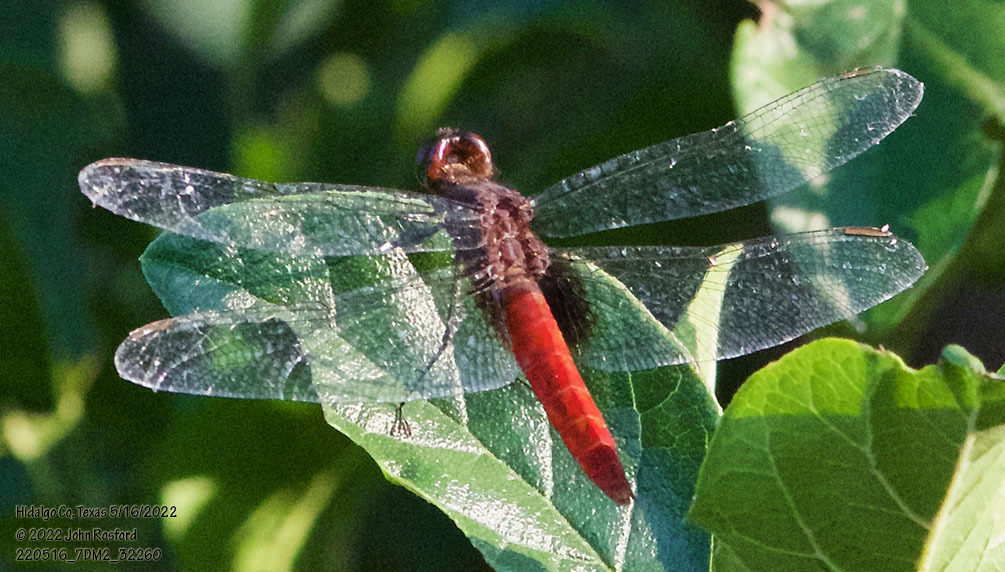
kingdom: Animalia
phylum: Arthropoda
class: Insecta
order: Odonata
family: Libellulidae
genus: Planiplax
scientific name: Planiplax sanguiniventris
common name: Mexican scarlet-tail
